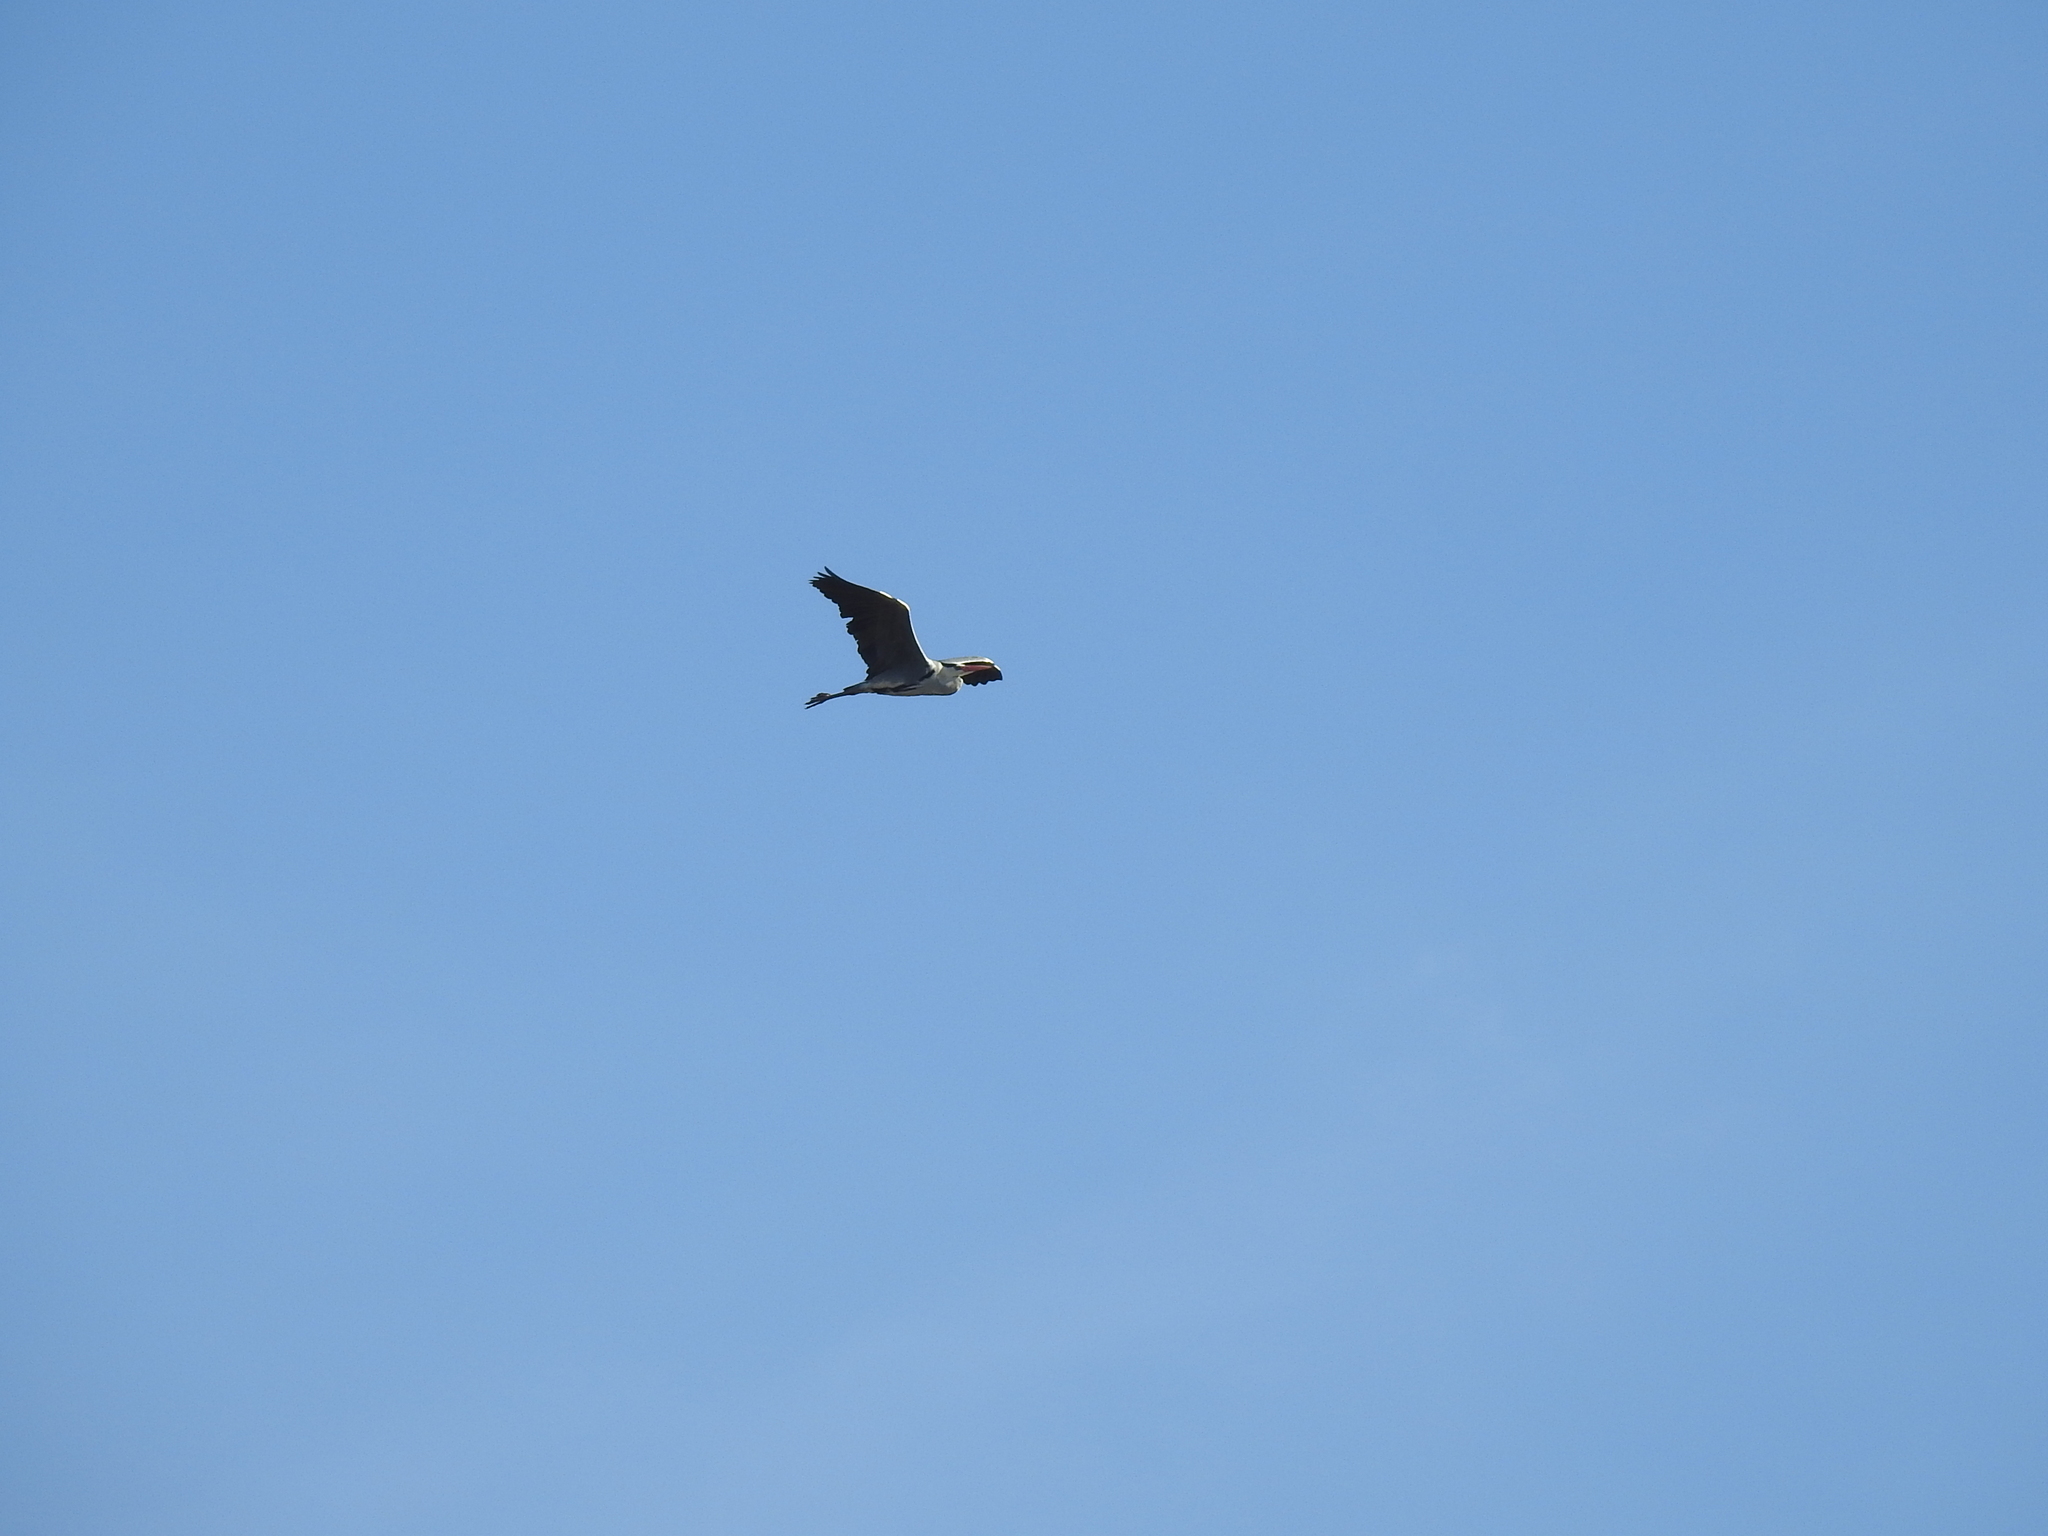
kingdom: Animalia
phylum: Chordata
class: Aves
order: Pelecaniformes
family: Ardeidae
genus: Ardea
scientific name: Ardea cinerea
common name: Grey heron
